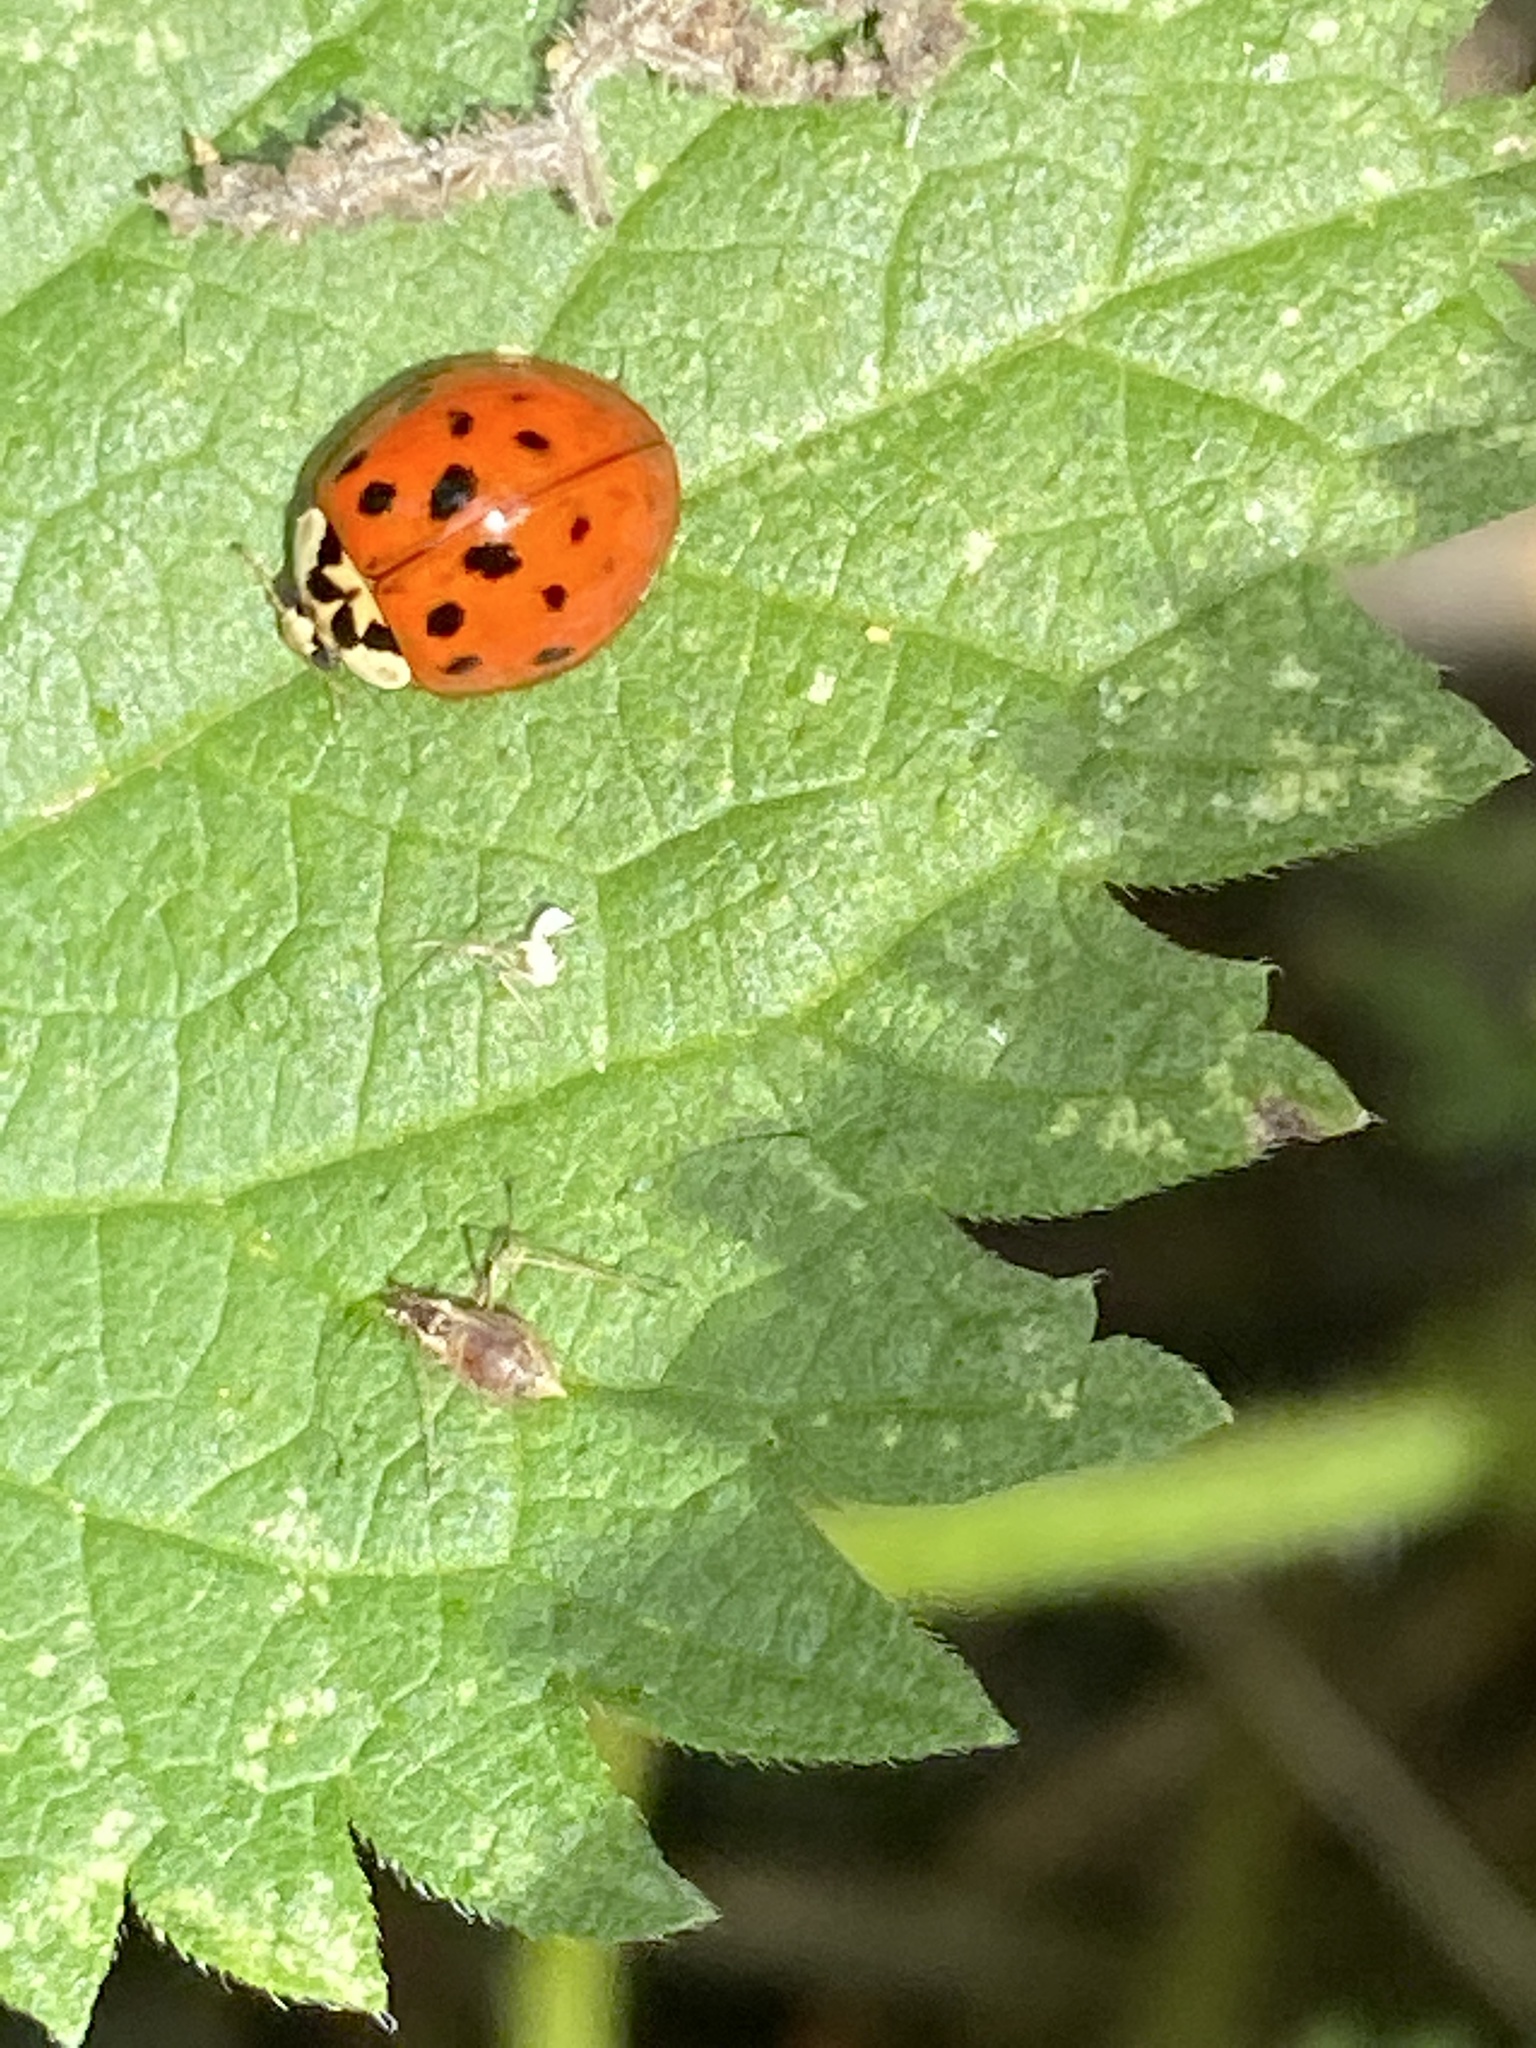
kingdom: Animalia
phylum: Arthropoda
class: Insecta
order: Coleoptera
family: Coccinellidae
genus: Harmonia
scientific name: Harmonia axyridis
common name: Harlequin ladybird
